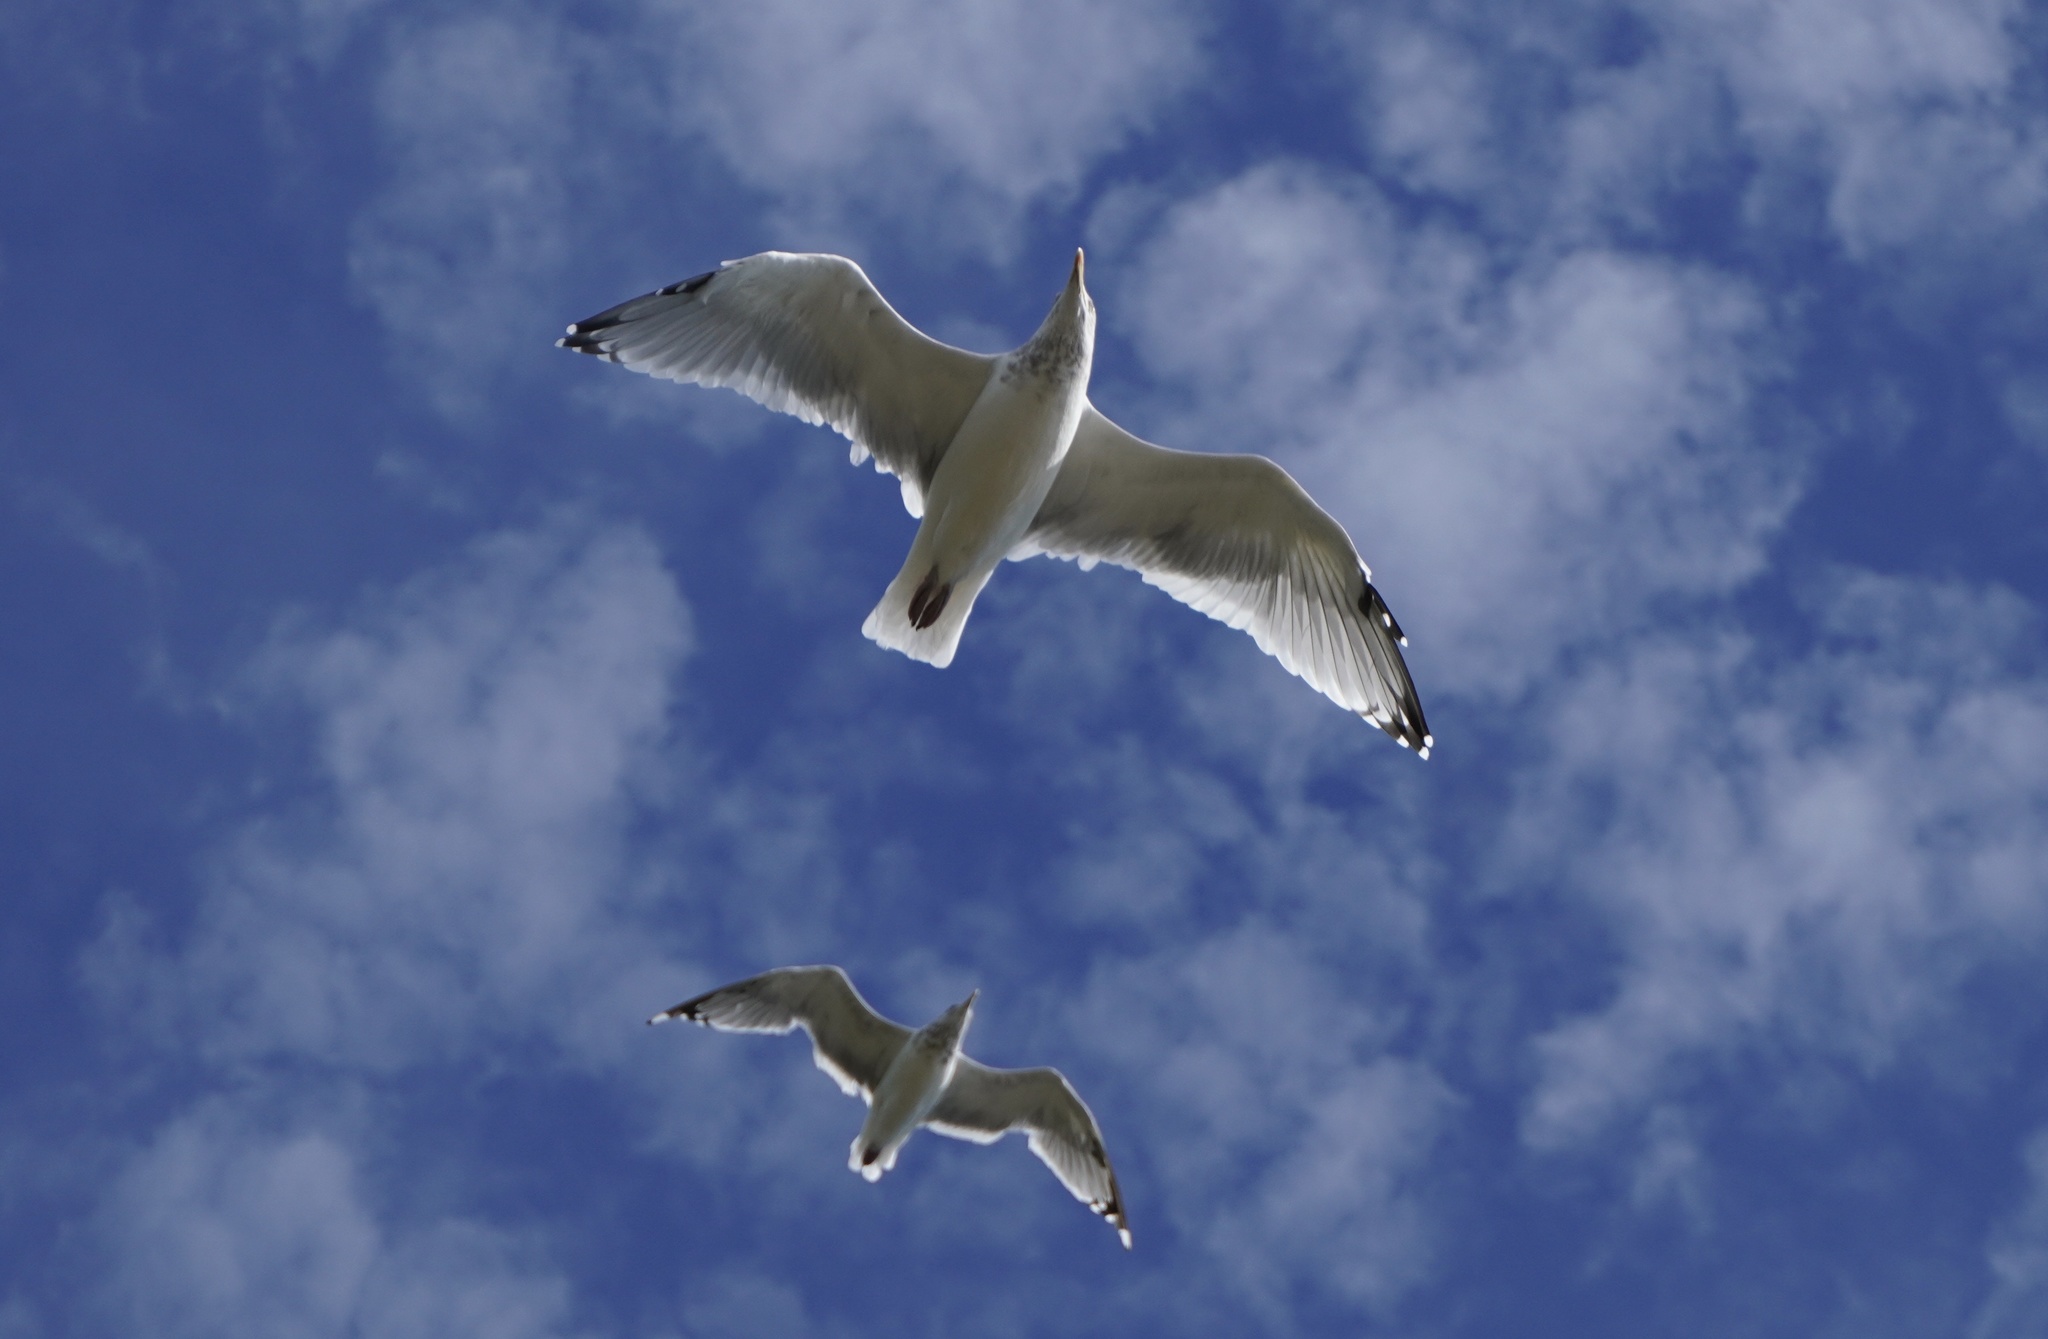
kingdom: Animalia
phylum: Chordata
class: Aves
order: Charadriiformes
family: Laridae
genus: Larus
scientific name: Larus argentatus
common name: Herring gull
